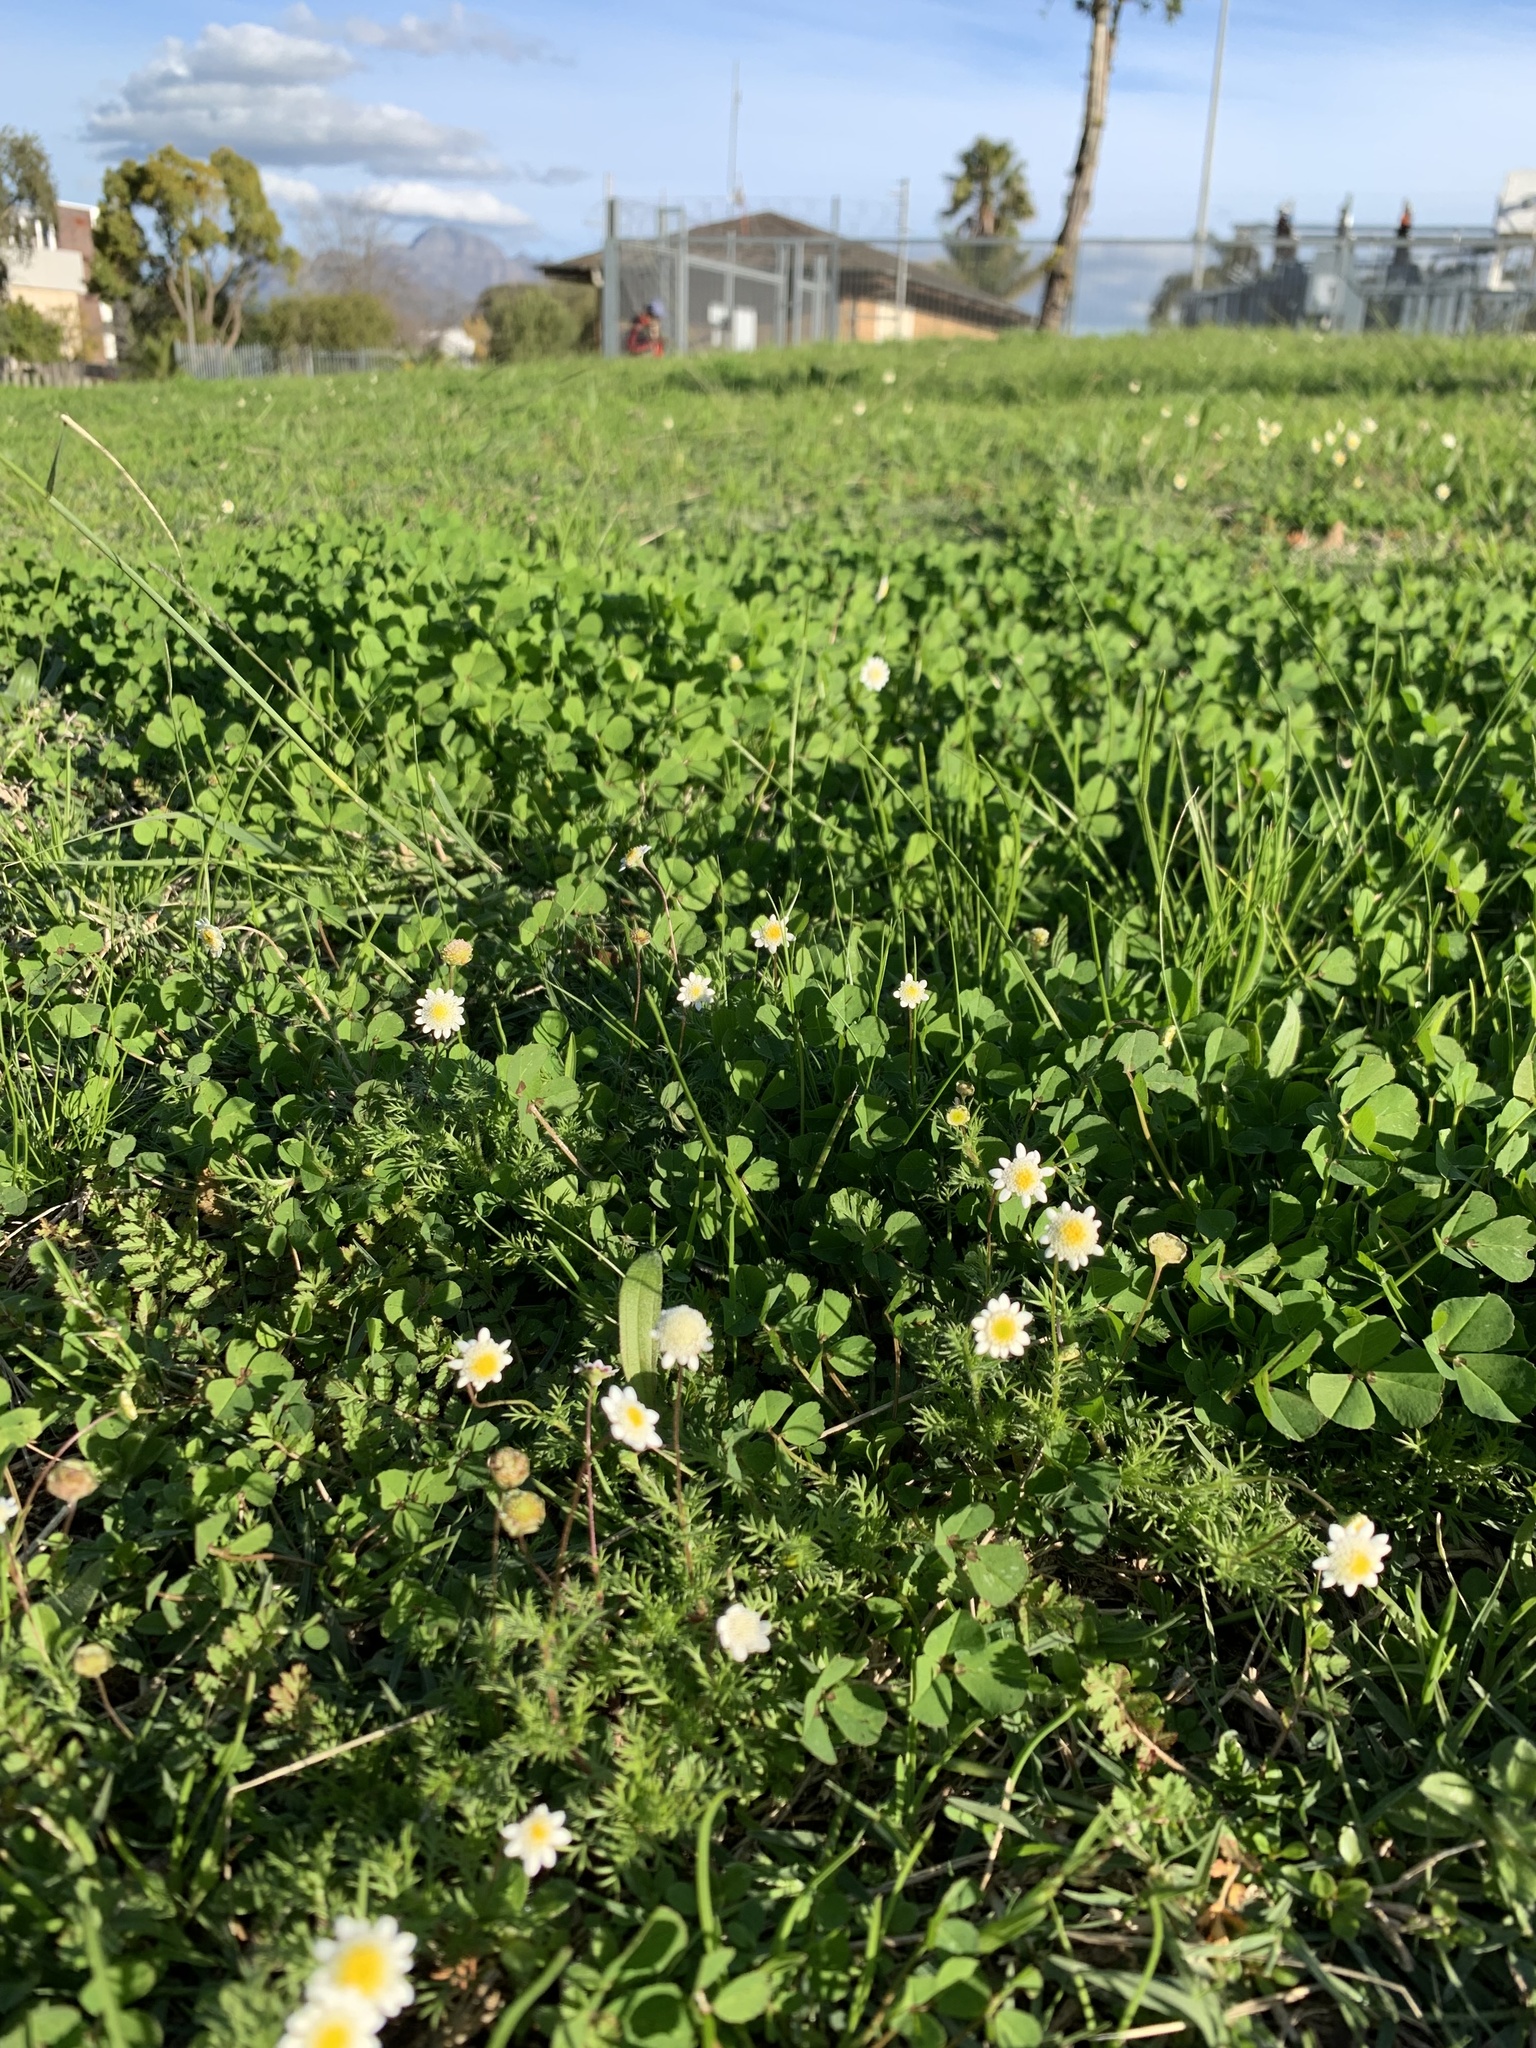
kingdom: Plantae
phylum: Tracheophyta
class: Magnoliopsida
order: Asterales
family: Asteraceae
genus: Cotula
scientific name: Cotula turbinata
